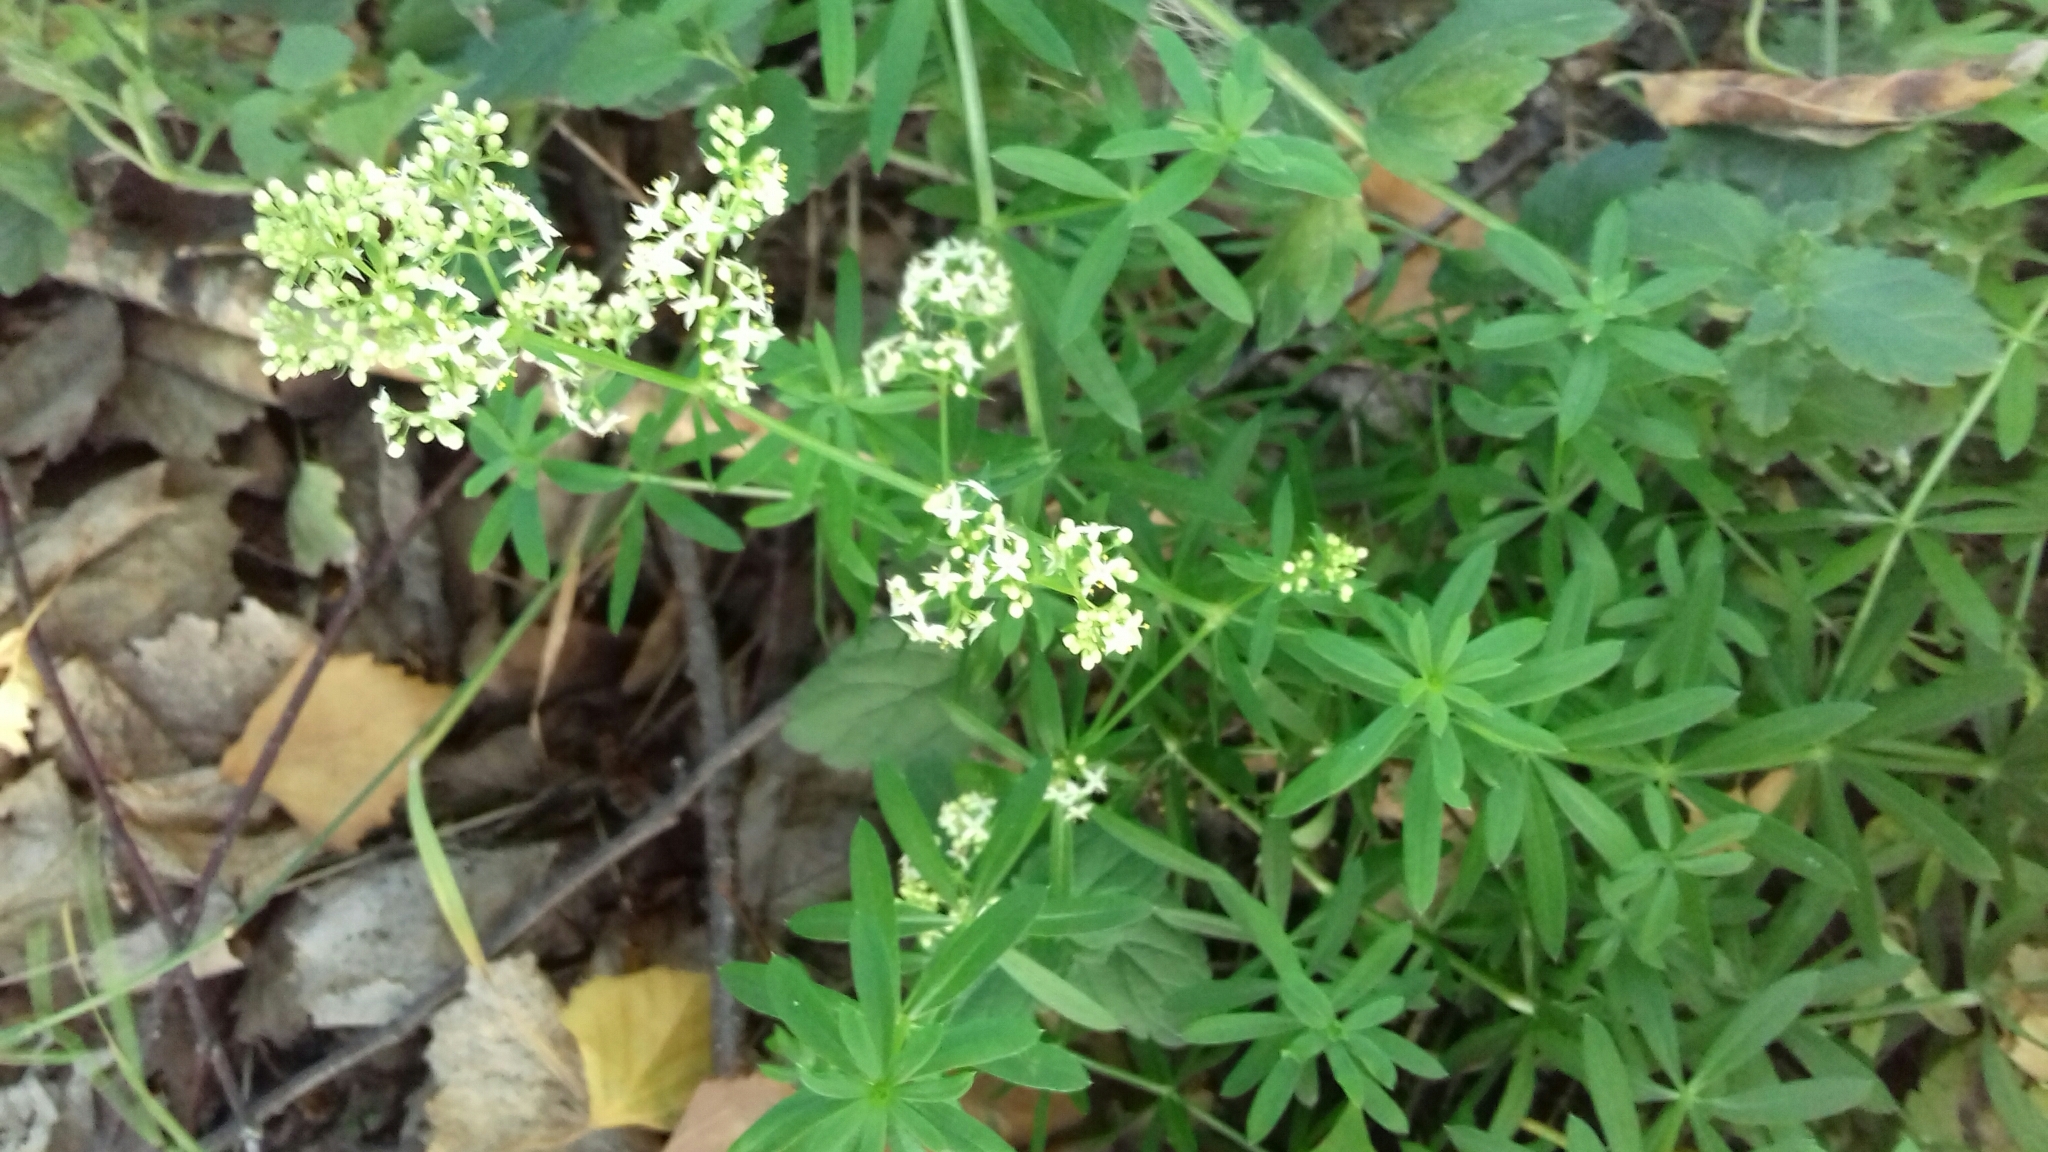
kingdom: Plantae
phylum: Tracheophyta
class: Magnoliopsida
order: Gentianales
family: Rubiaceae
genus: Galium
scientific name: Galium mollugo
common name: Hedge bedstraw
